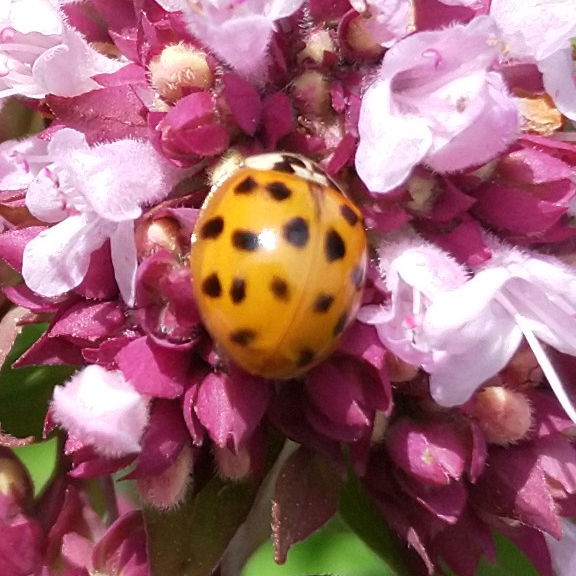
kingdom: Animalia
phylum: Arthropoda
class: Insecta
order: Coleoptera
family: Coccinellidae
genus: Harmonia
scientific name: Harmonia axyridis
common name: Harlequin ladybird
